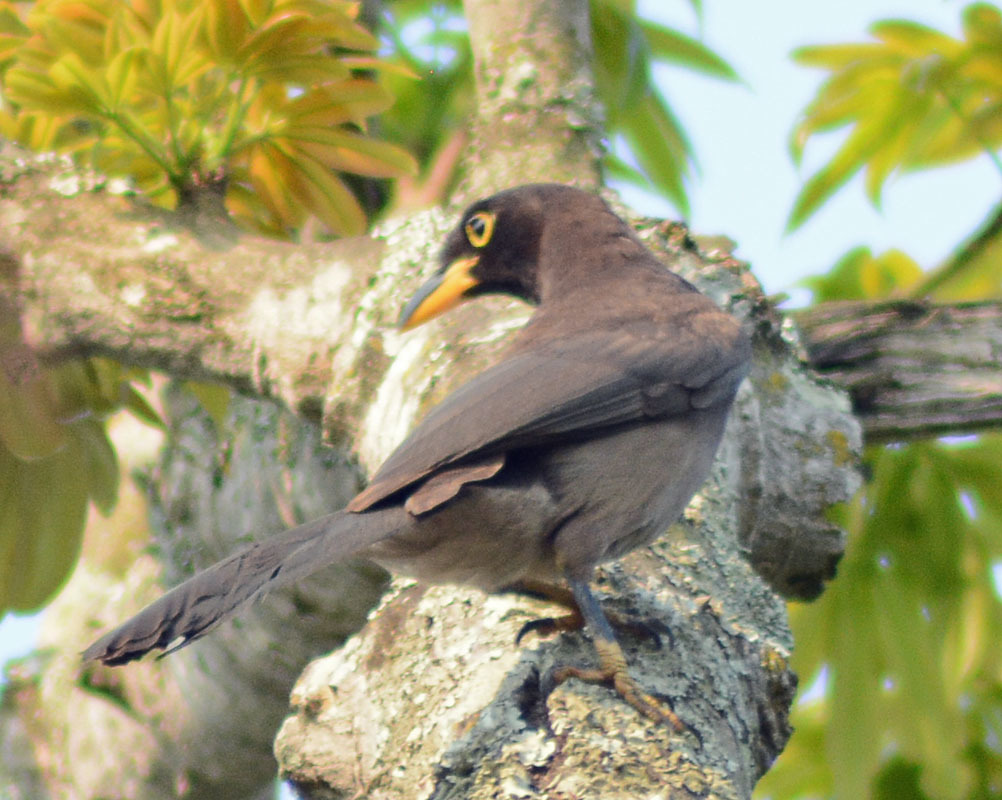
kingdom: Animalia
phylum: Chordata
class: Aves
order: Passeriformes
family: Corvidae
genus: Psilorhinus
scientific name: Psilorhinus morio
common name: Brown jay
